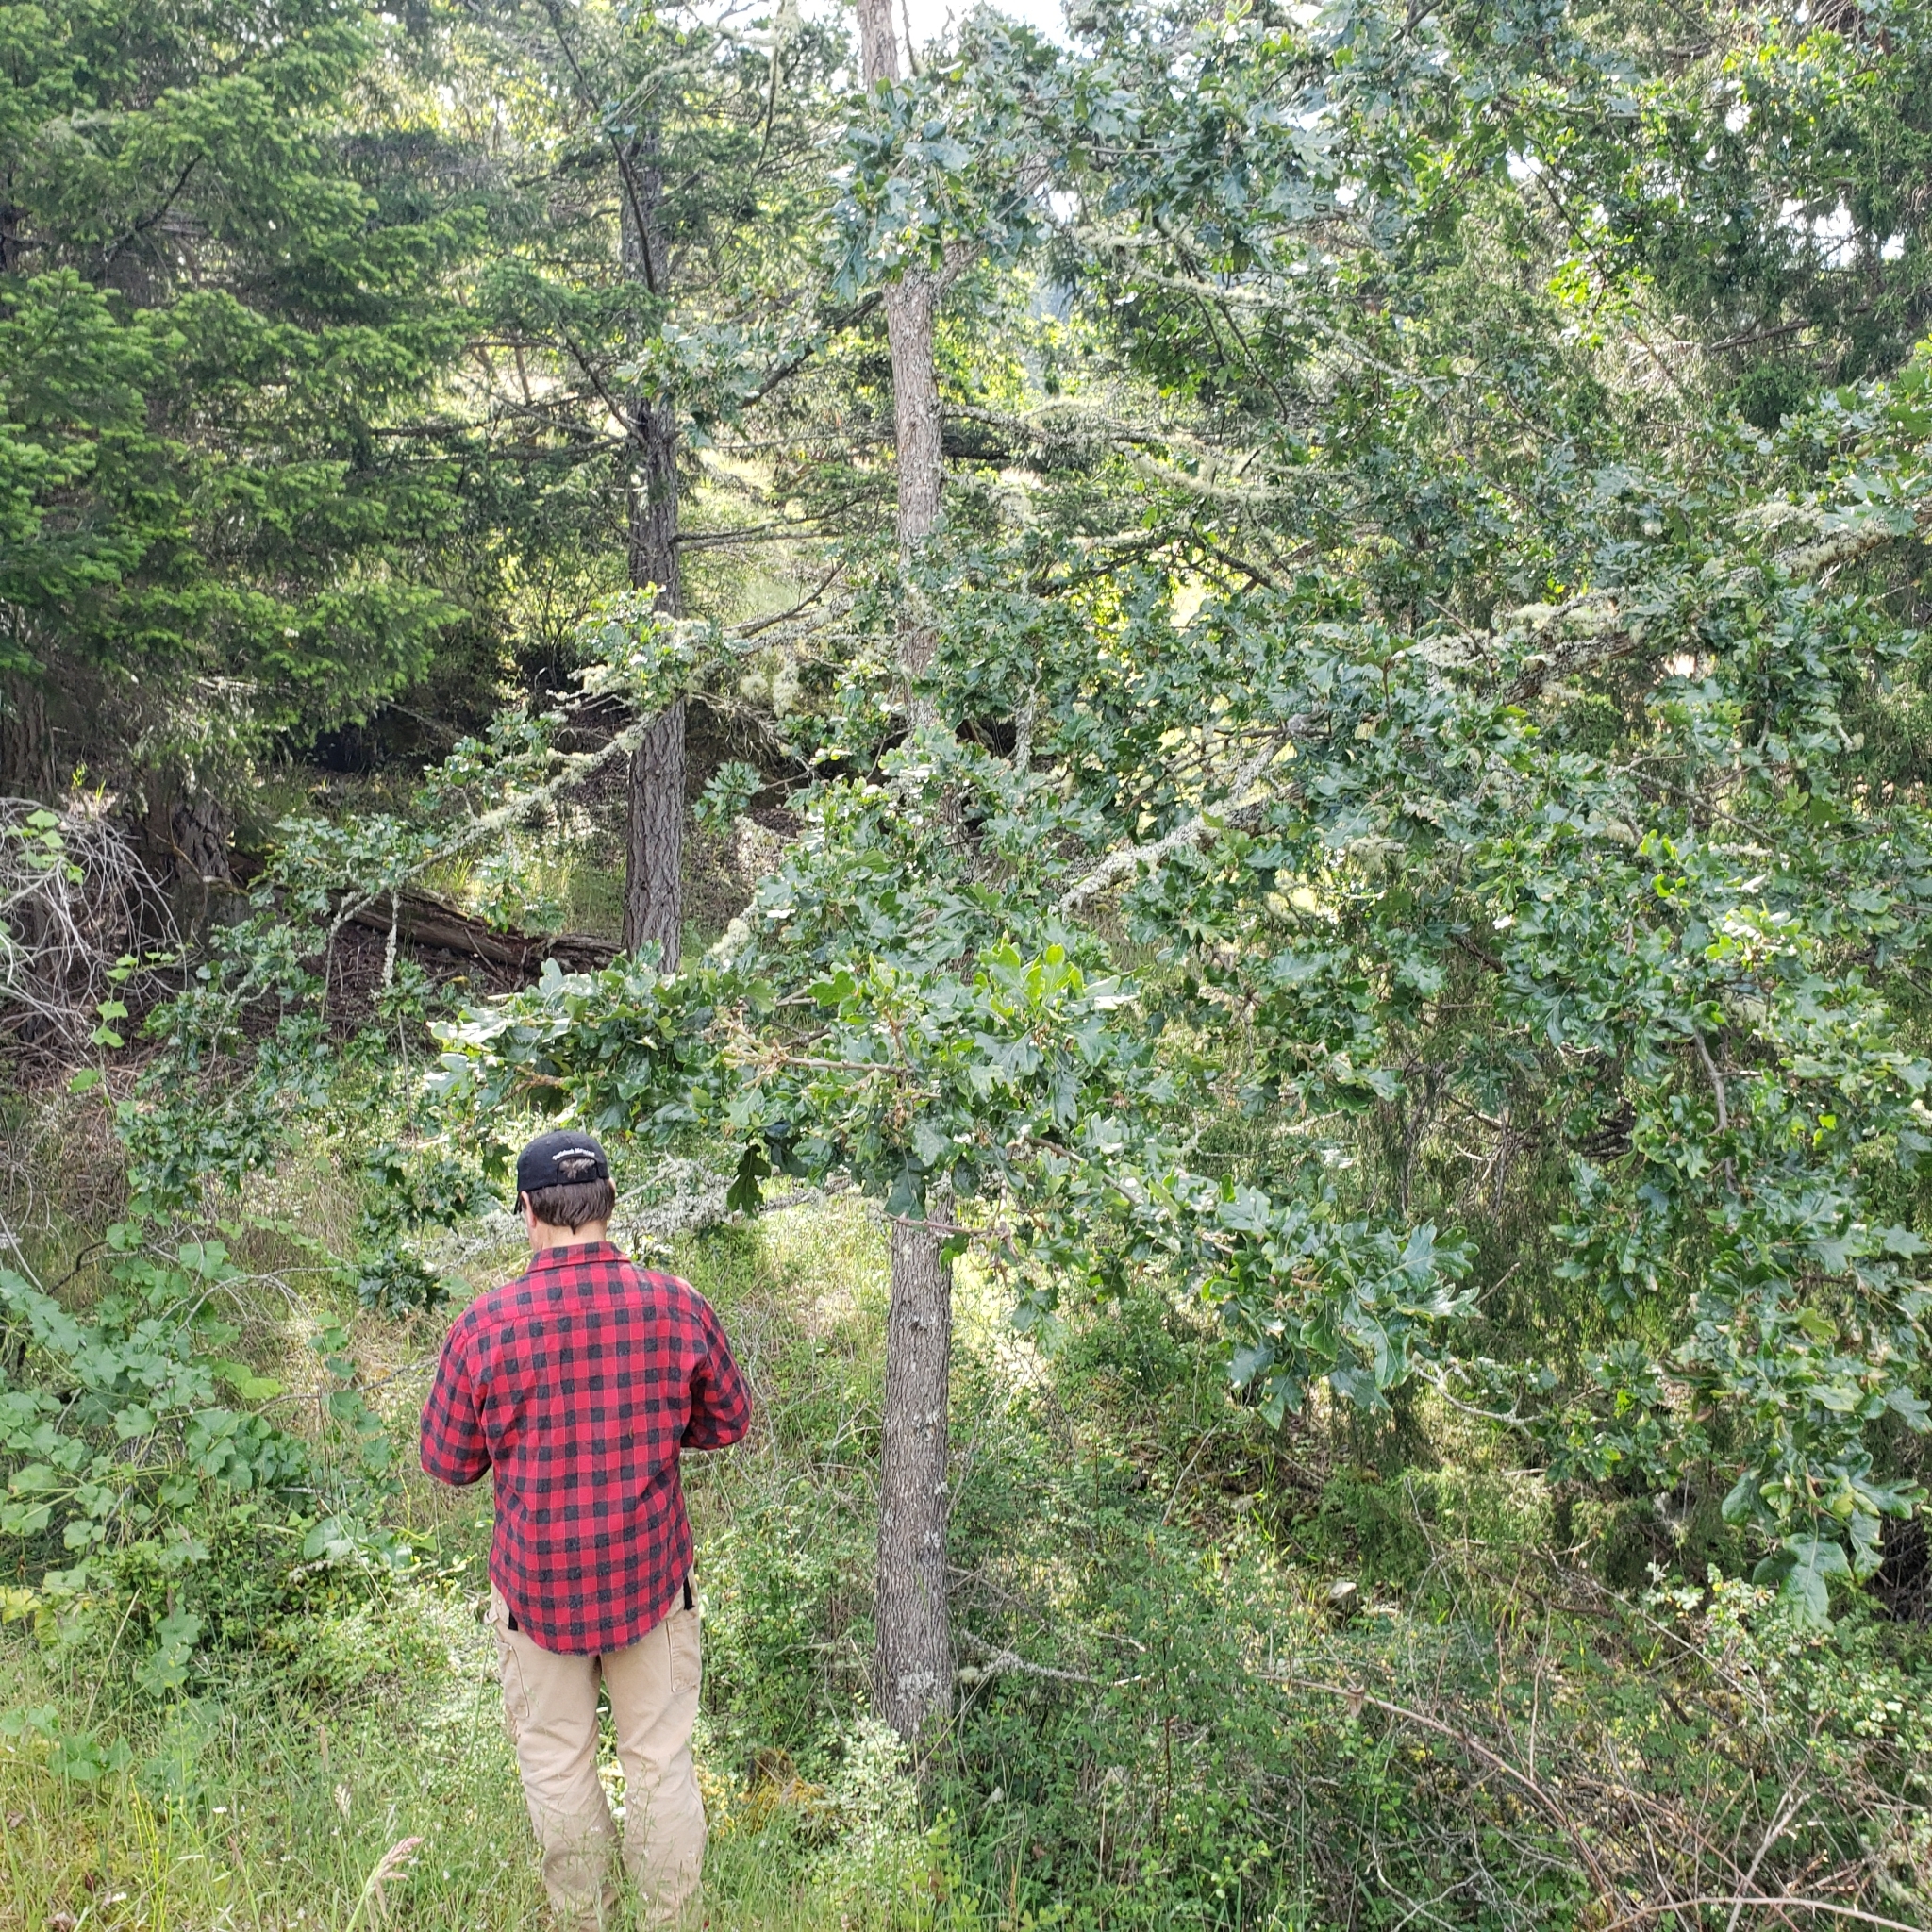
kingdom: Plantae
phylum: Tracheophyta
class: Magnoliopsida
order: Fagales
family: Fagaceae
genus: Quercus
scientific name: Quercus garryana
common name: Garry oak
